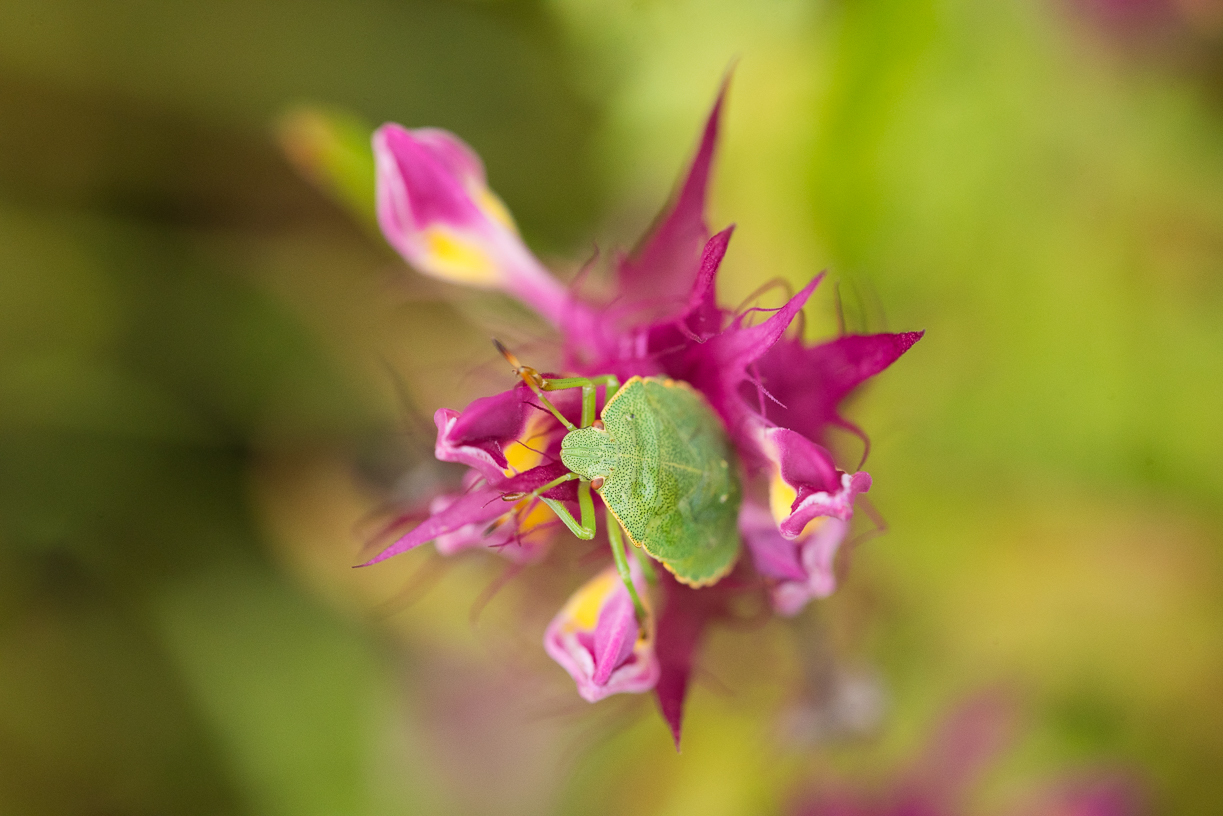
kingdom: Animalia
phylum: Arthropoda
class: Insecta
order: Hemiptera
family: Pentatomidae
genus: Palomena
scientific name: Palomena prasina
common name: Green shieldbug
